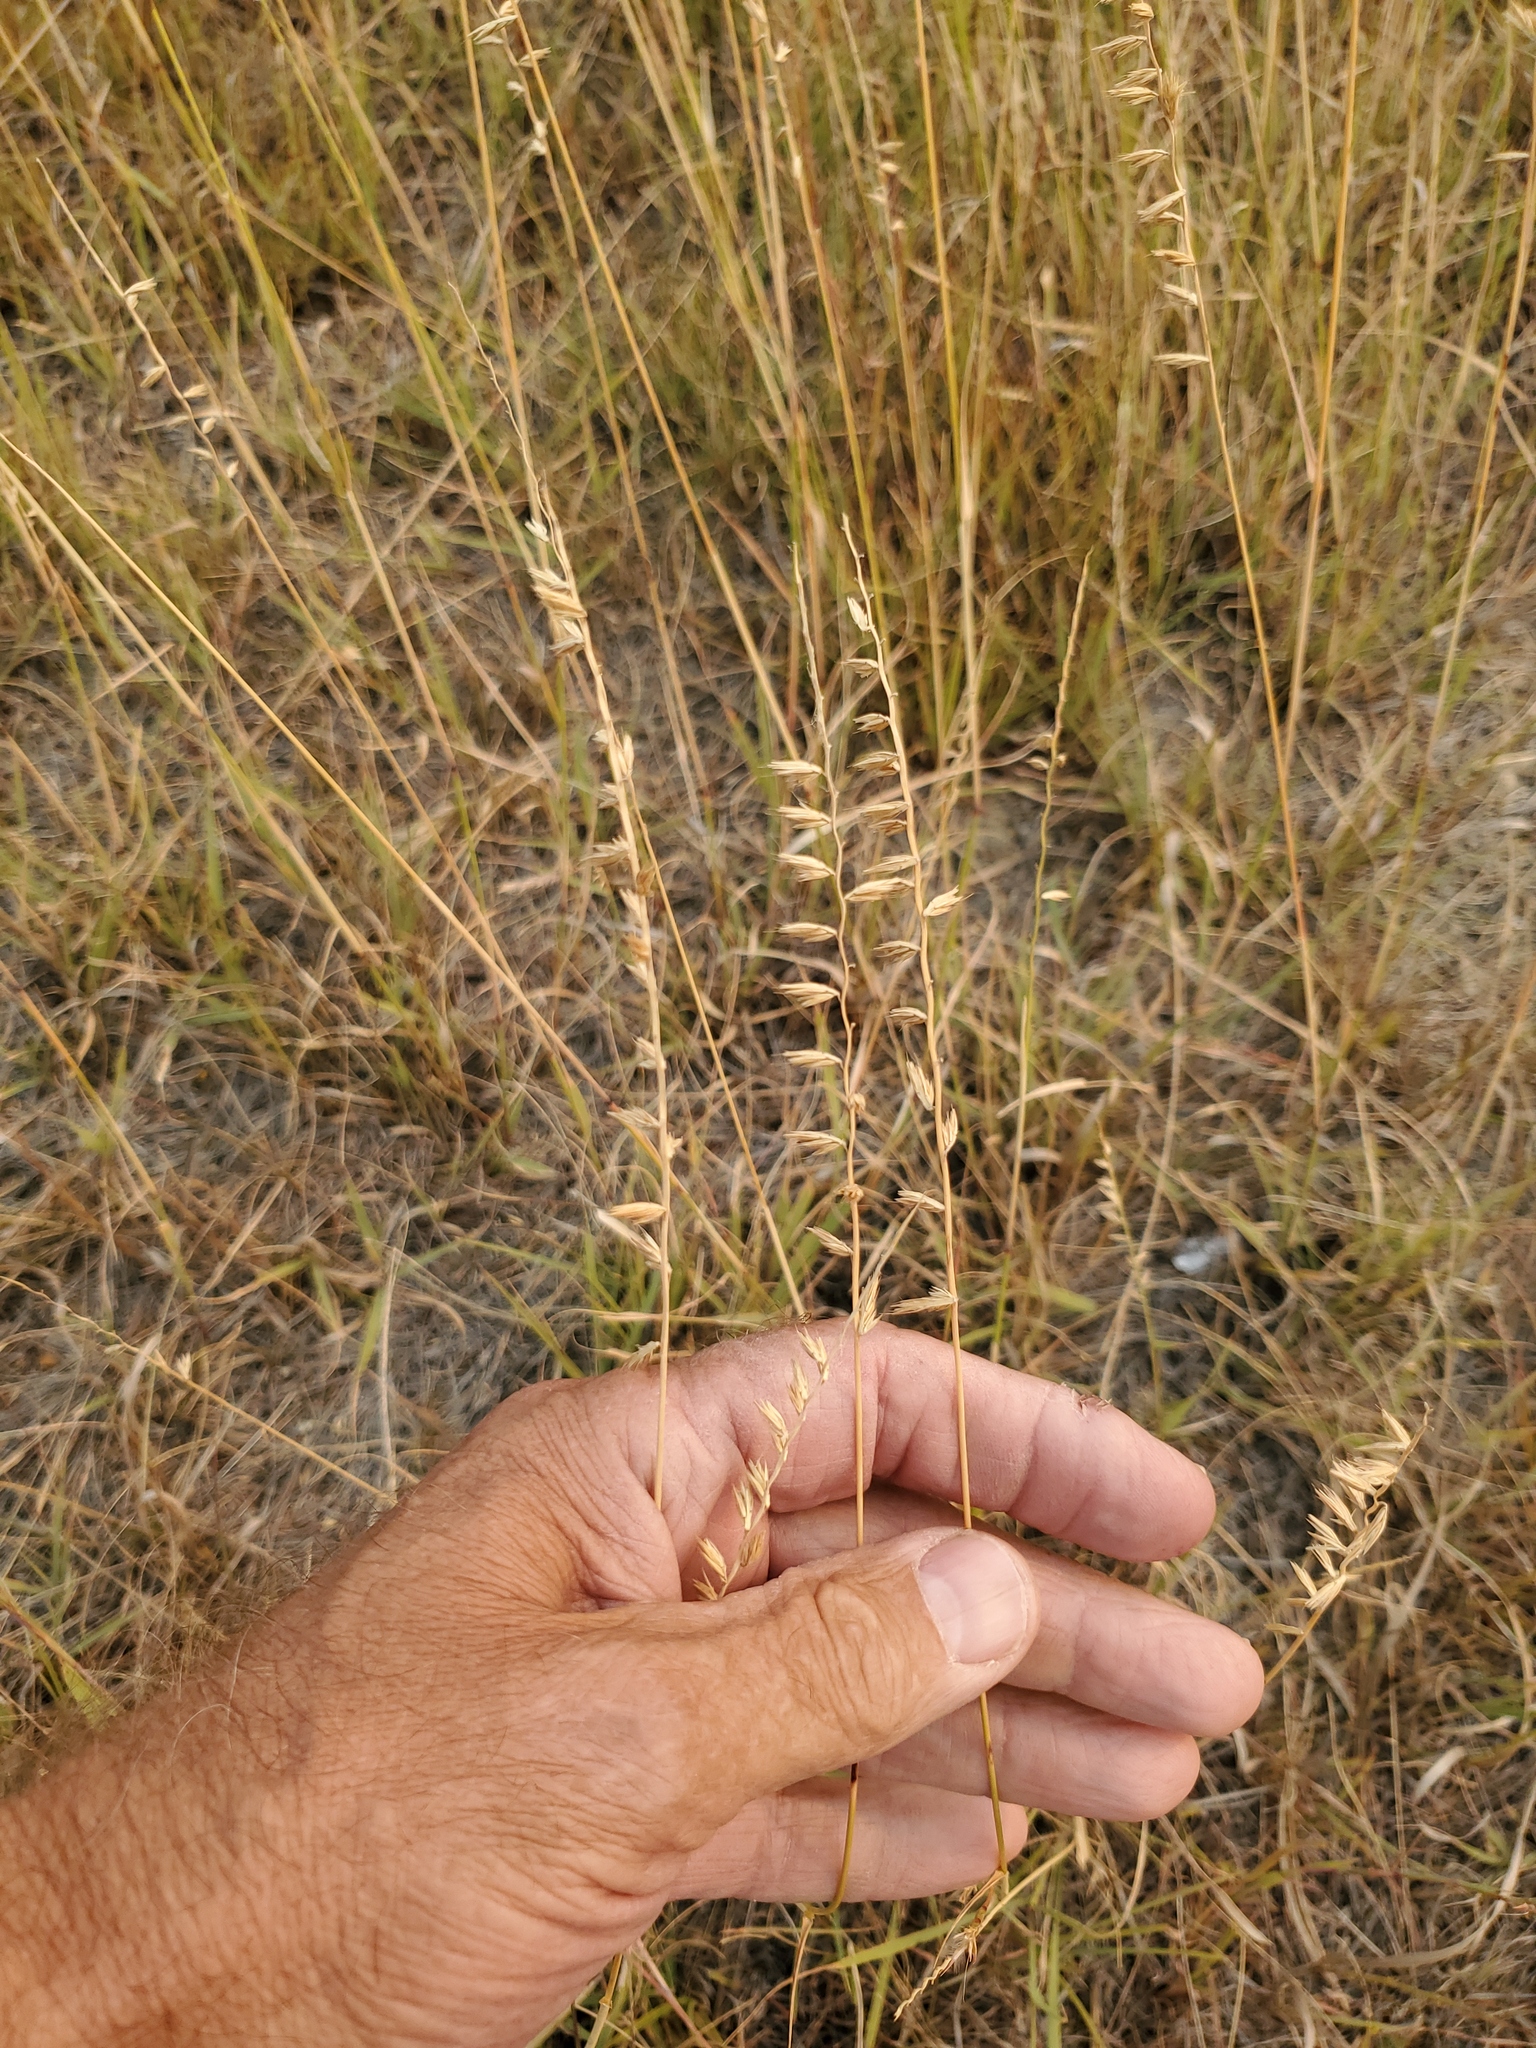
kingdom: Plantae
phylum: Tracheophyta
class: Liliopsida
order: Poales
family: Poaceae
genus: Bouteloua
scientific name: Bouteloua curtipendula
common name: Side-oats grama
